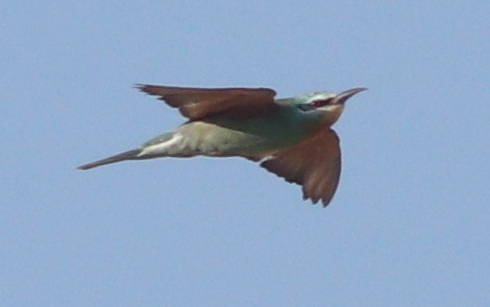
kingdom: Animalia
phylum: Chordata
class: Aves
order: Coraciiformes
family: Meropidae
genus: Merops
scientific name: Merops persicus
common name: Blue-cheeked bee-eater
